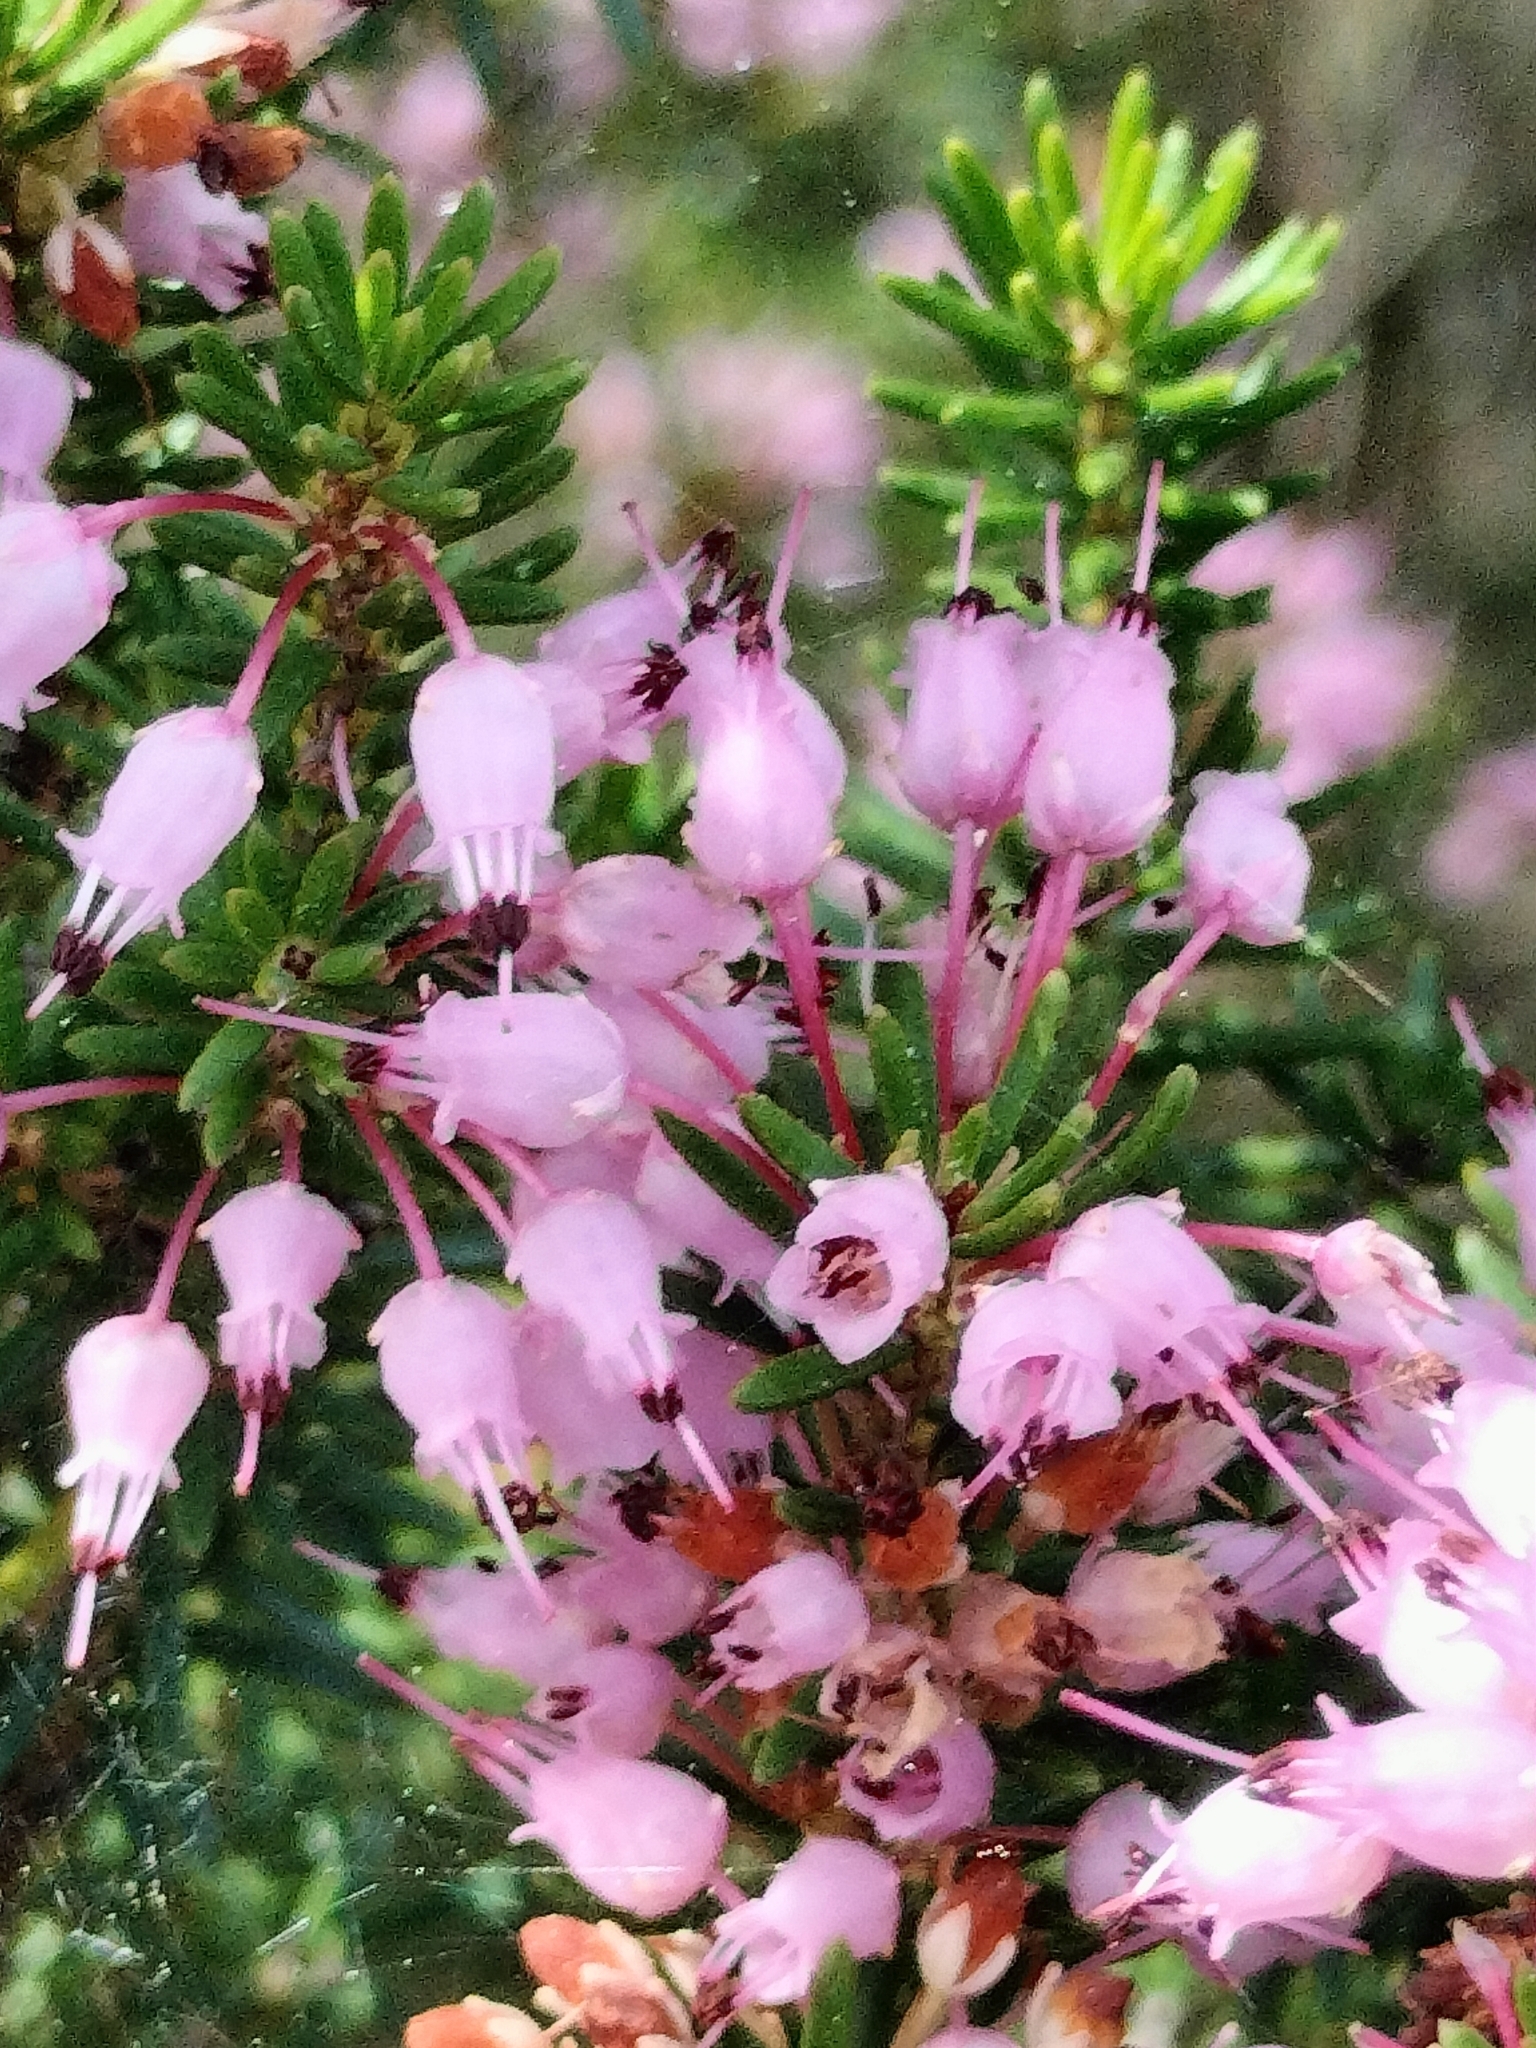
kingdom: Plantae
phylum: Tracheophyta
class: Magnoliopsida
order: Ericales
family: Ericaceae
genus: Erica
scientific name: Erica multiflora
